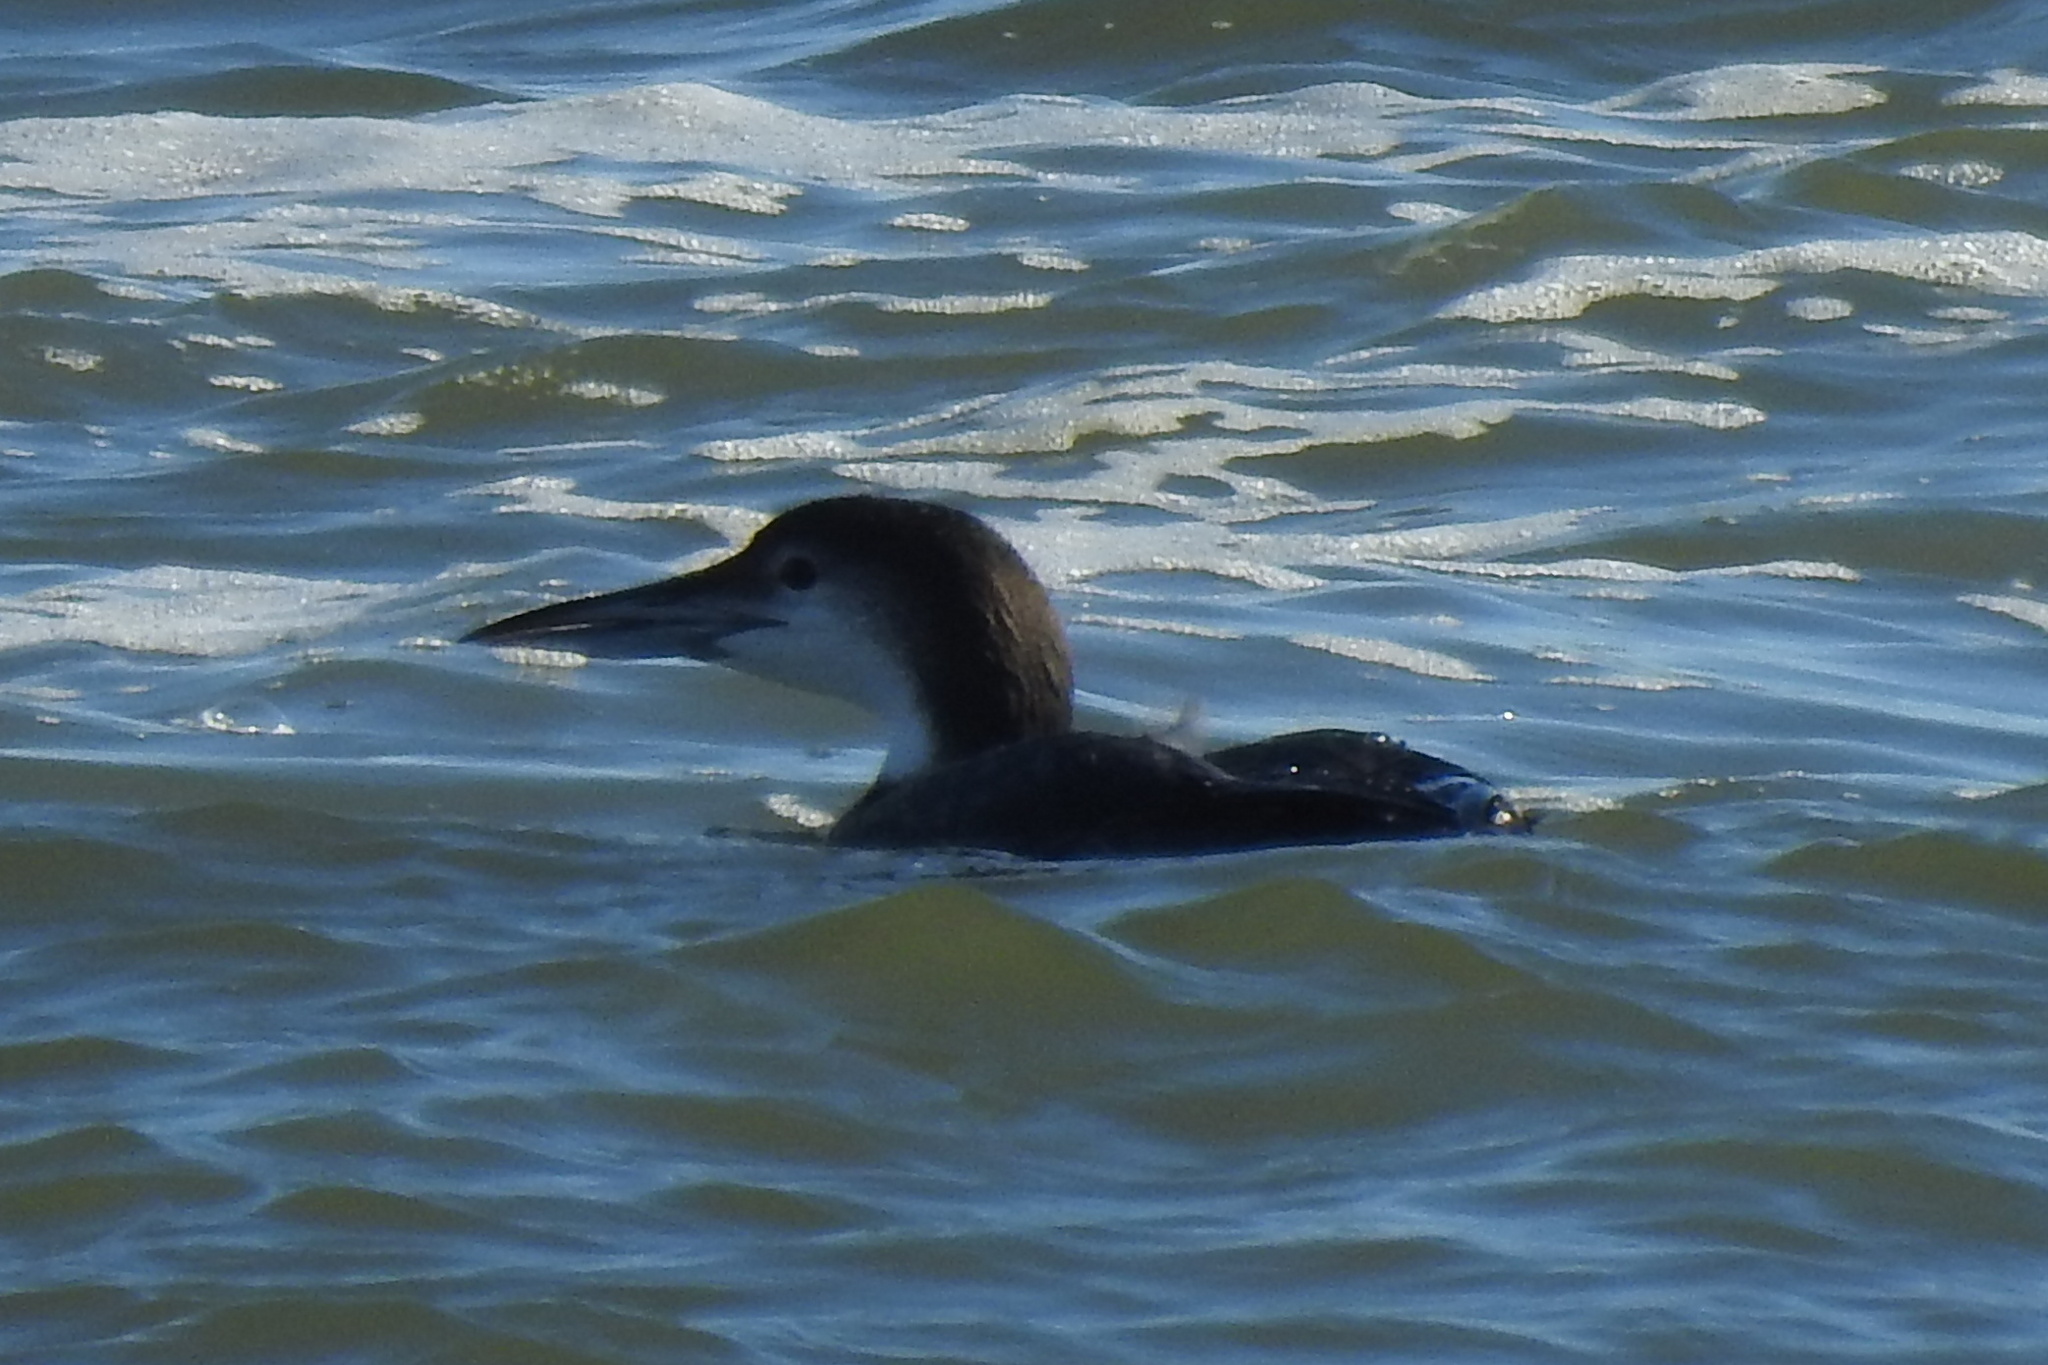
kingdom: Animalia
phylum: Chordata
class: Aves
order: Gaviiformes
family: Gaviidae
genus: Gavia
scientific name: Gavia immer
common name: Common loon
